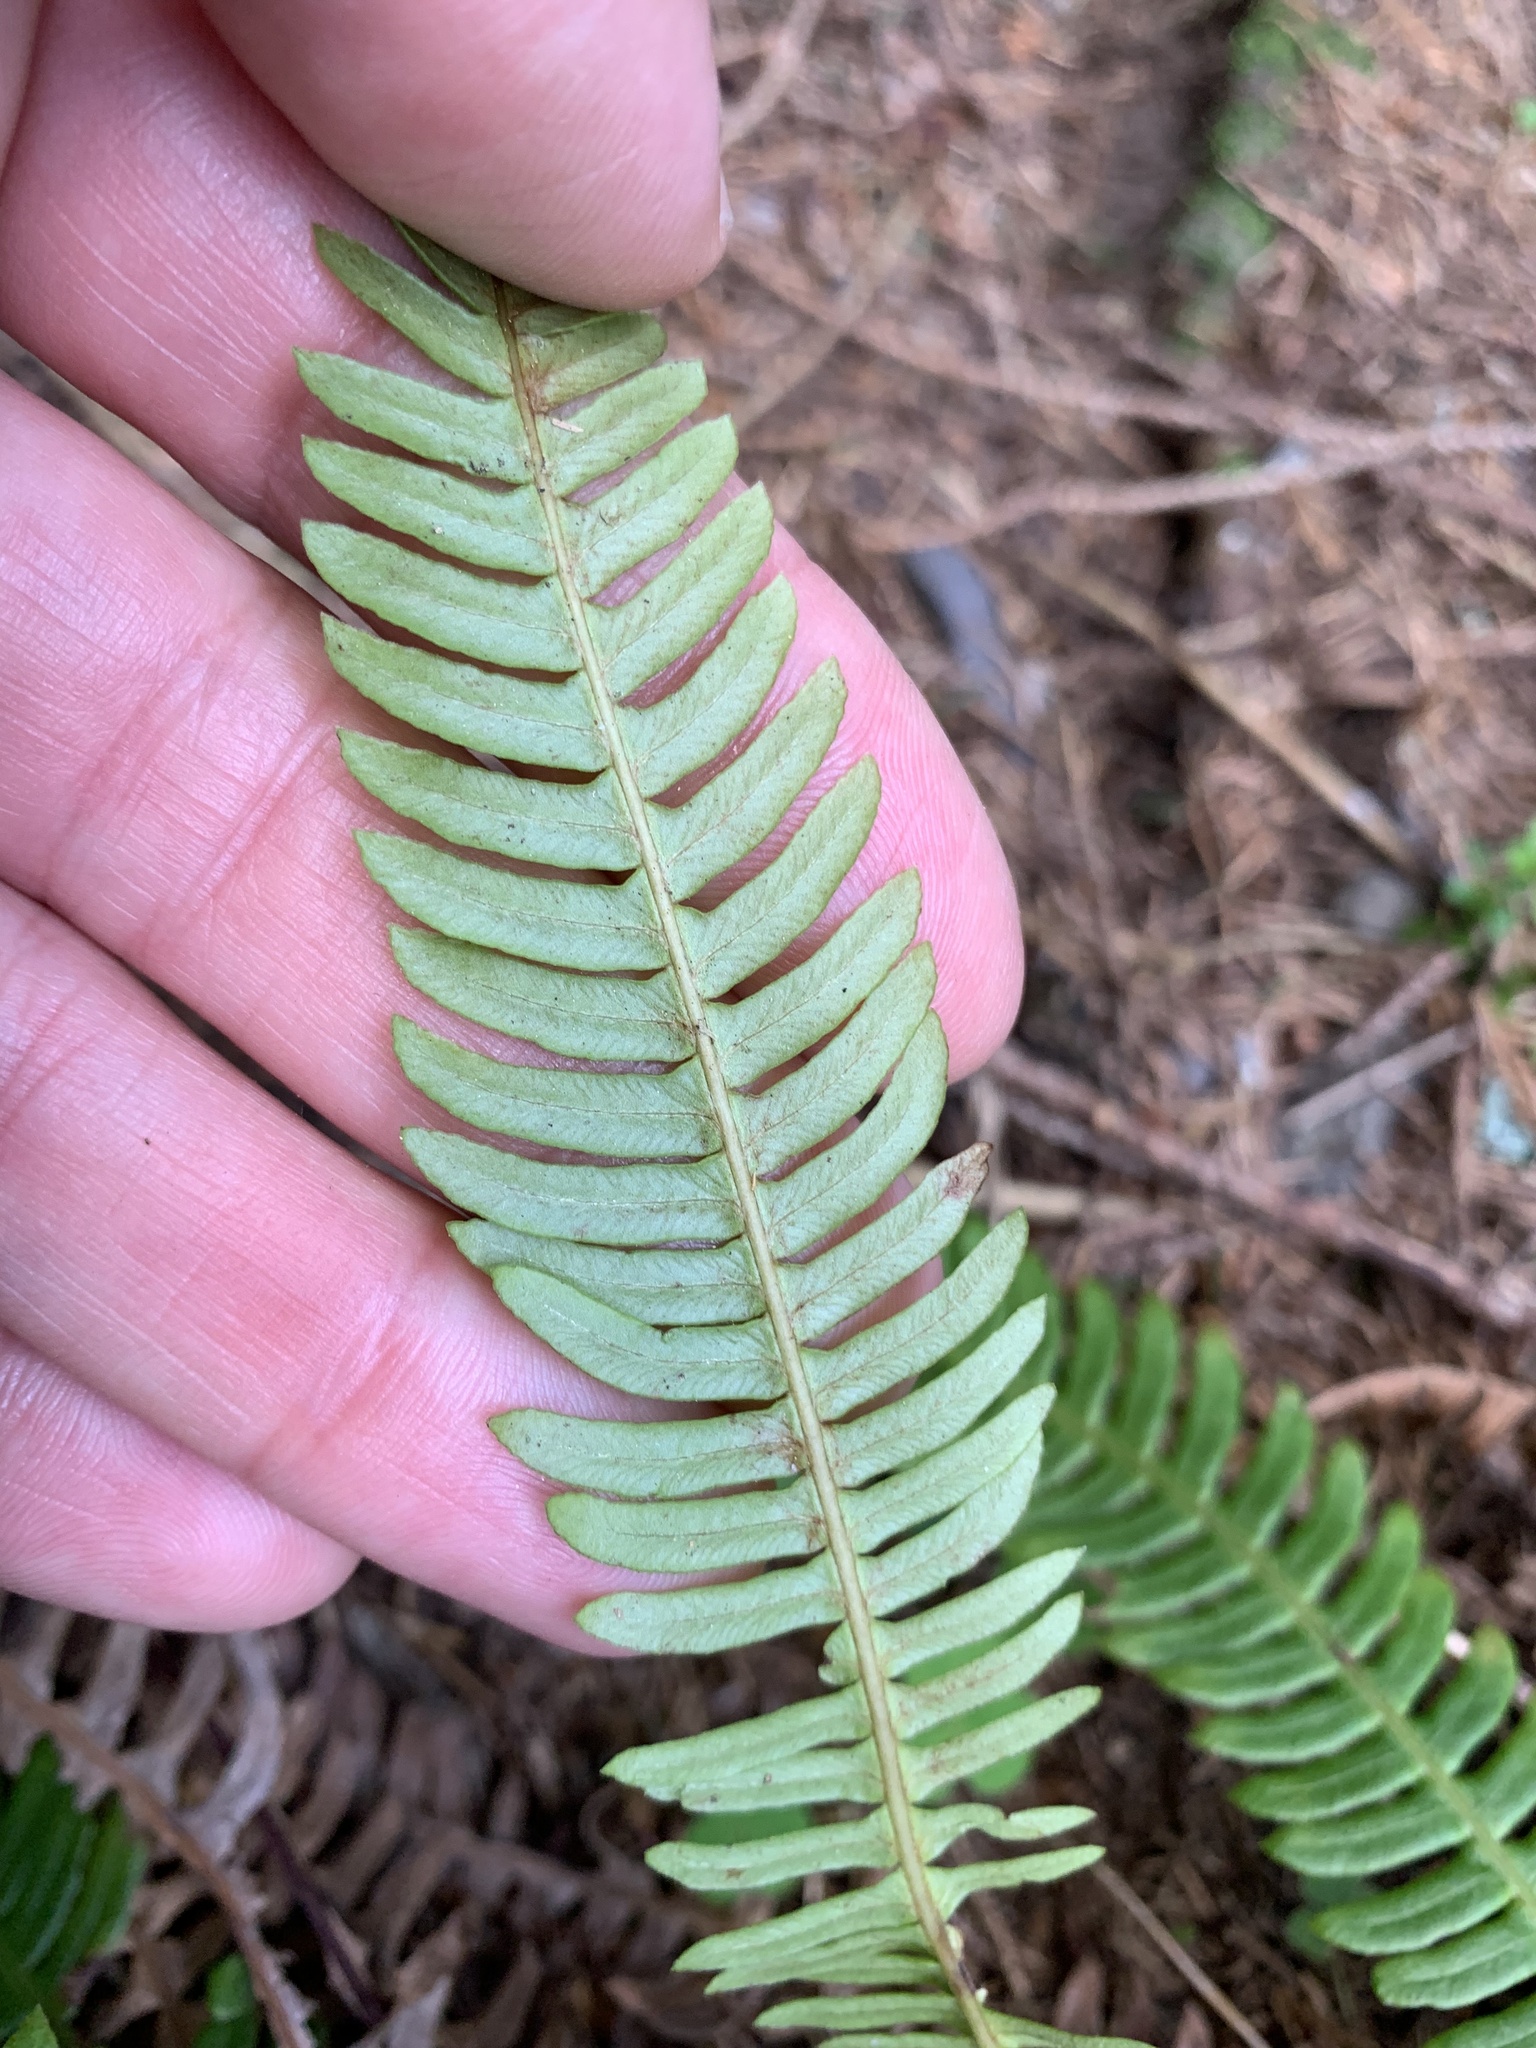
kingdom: Plantae
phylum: Tracheophyta
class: Polypodiopsida
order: Polypodiales
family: Blechnaceae
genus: Struthiopteris
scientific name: Struthiopteris spicant
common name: Deer fern
